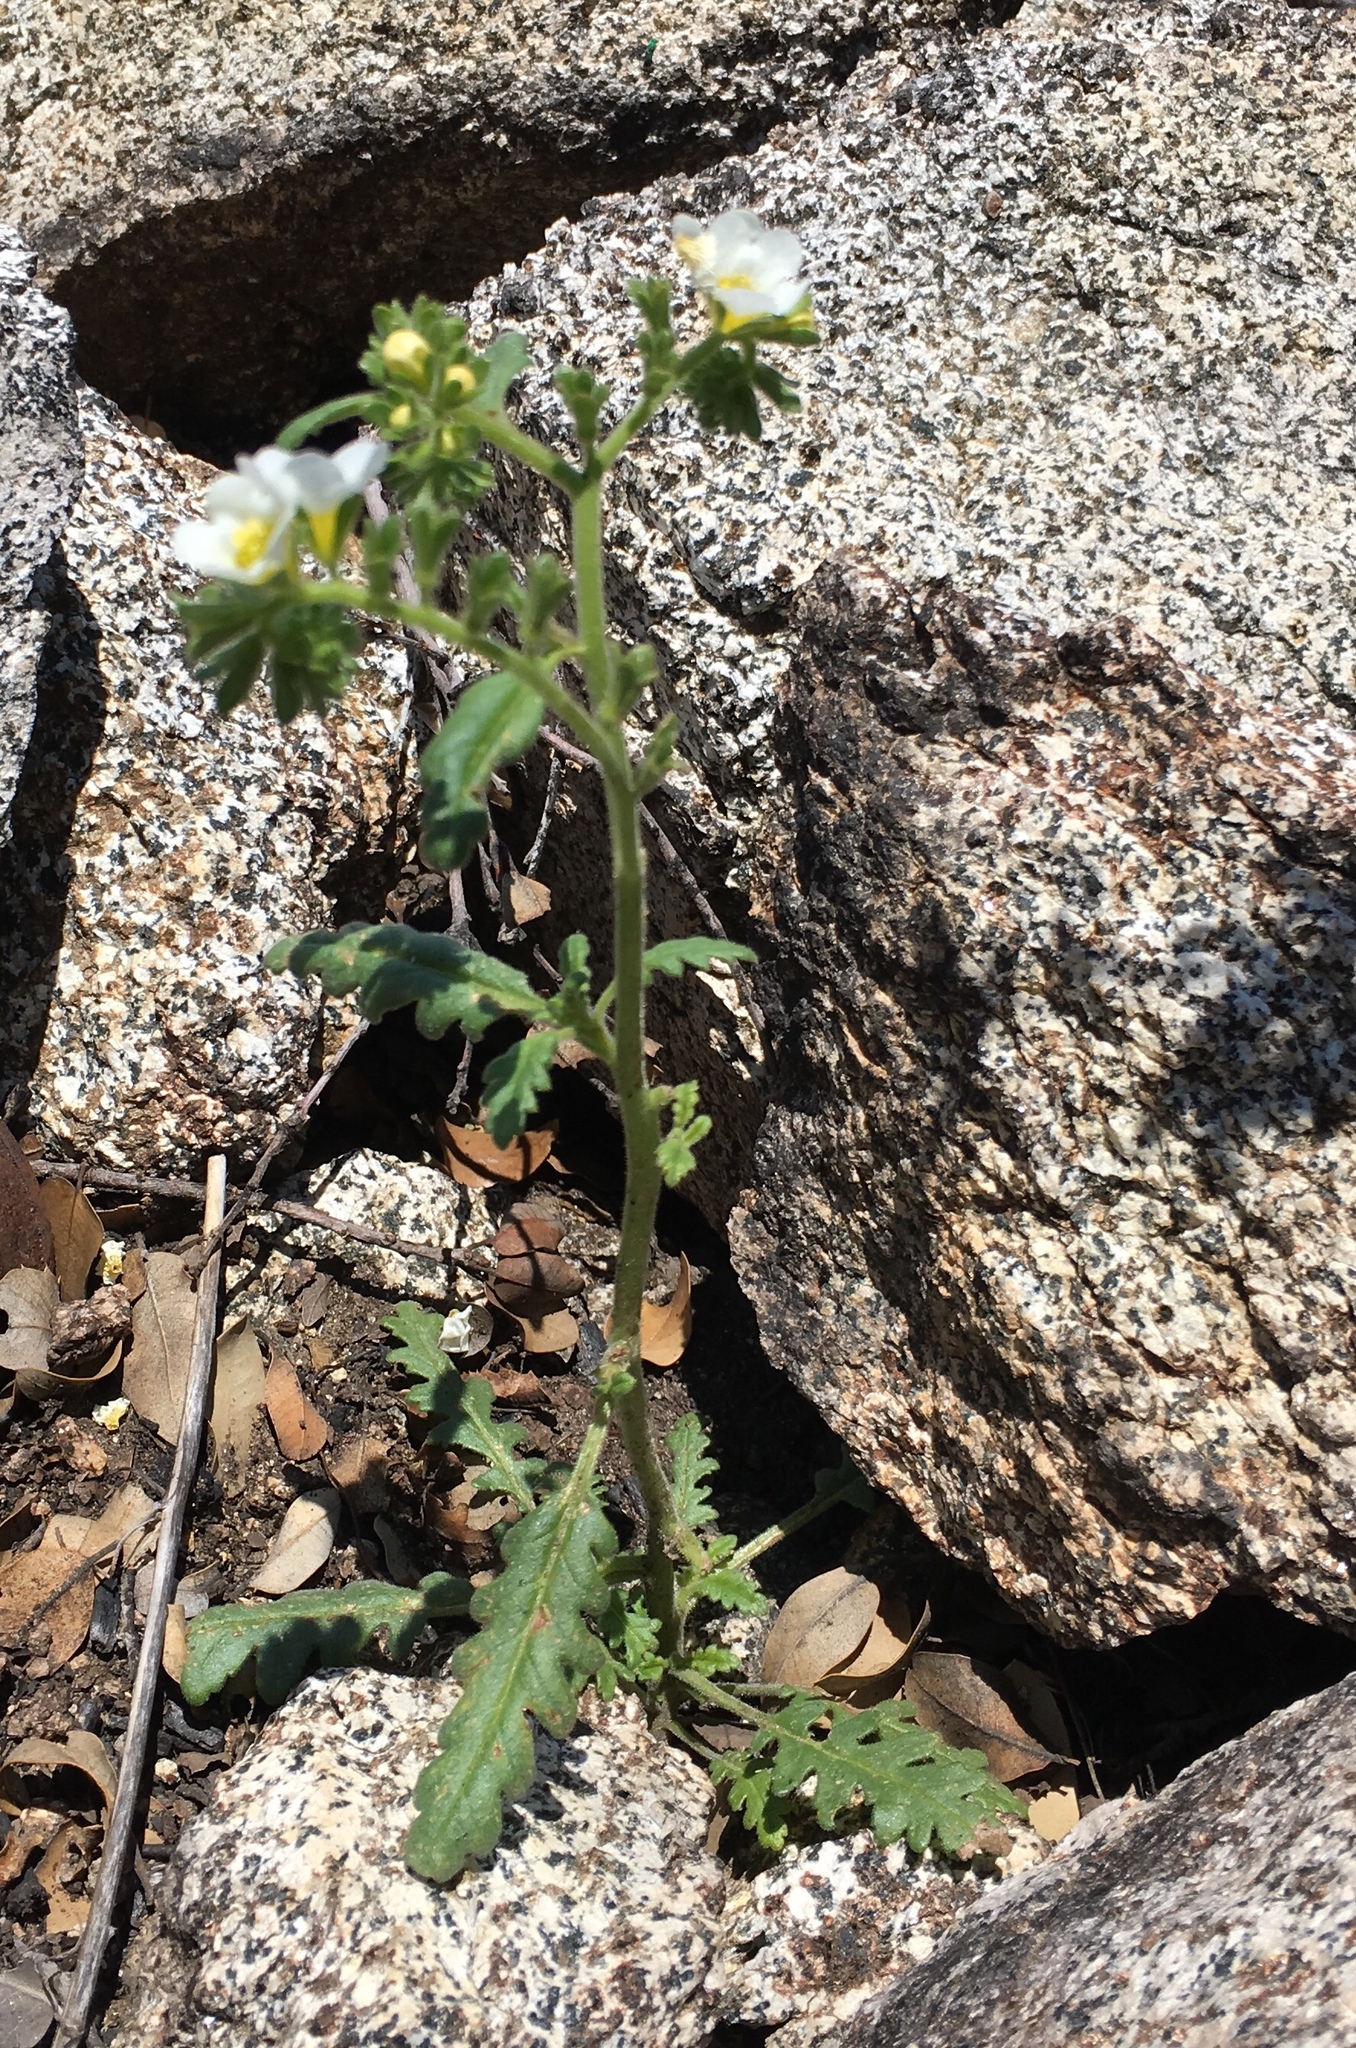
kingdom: Plantae
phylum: Tracheophyta
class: Magnoliopsida
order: Boraginales
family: Hydrophyllaceae
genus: Phacelia
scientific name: Phacelia brachyloba
